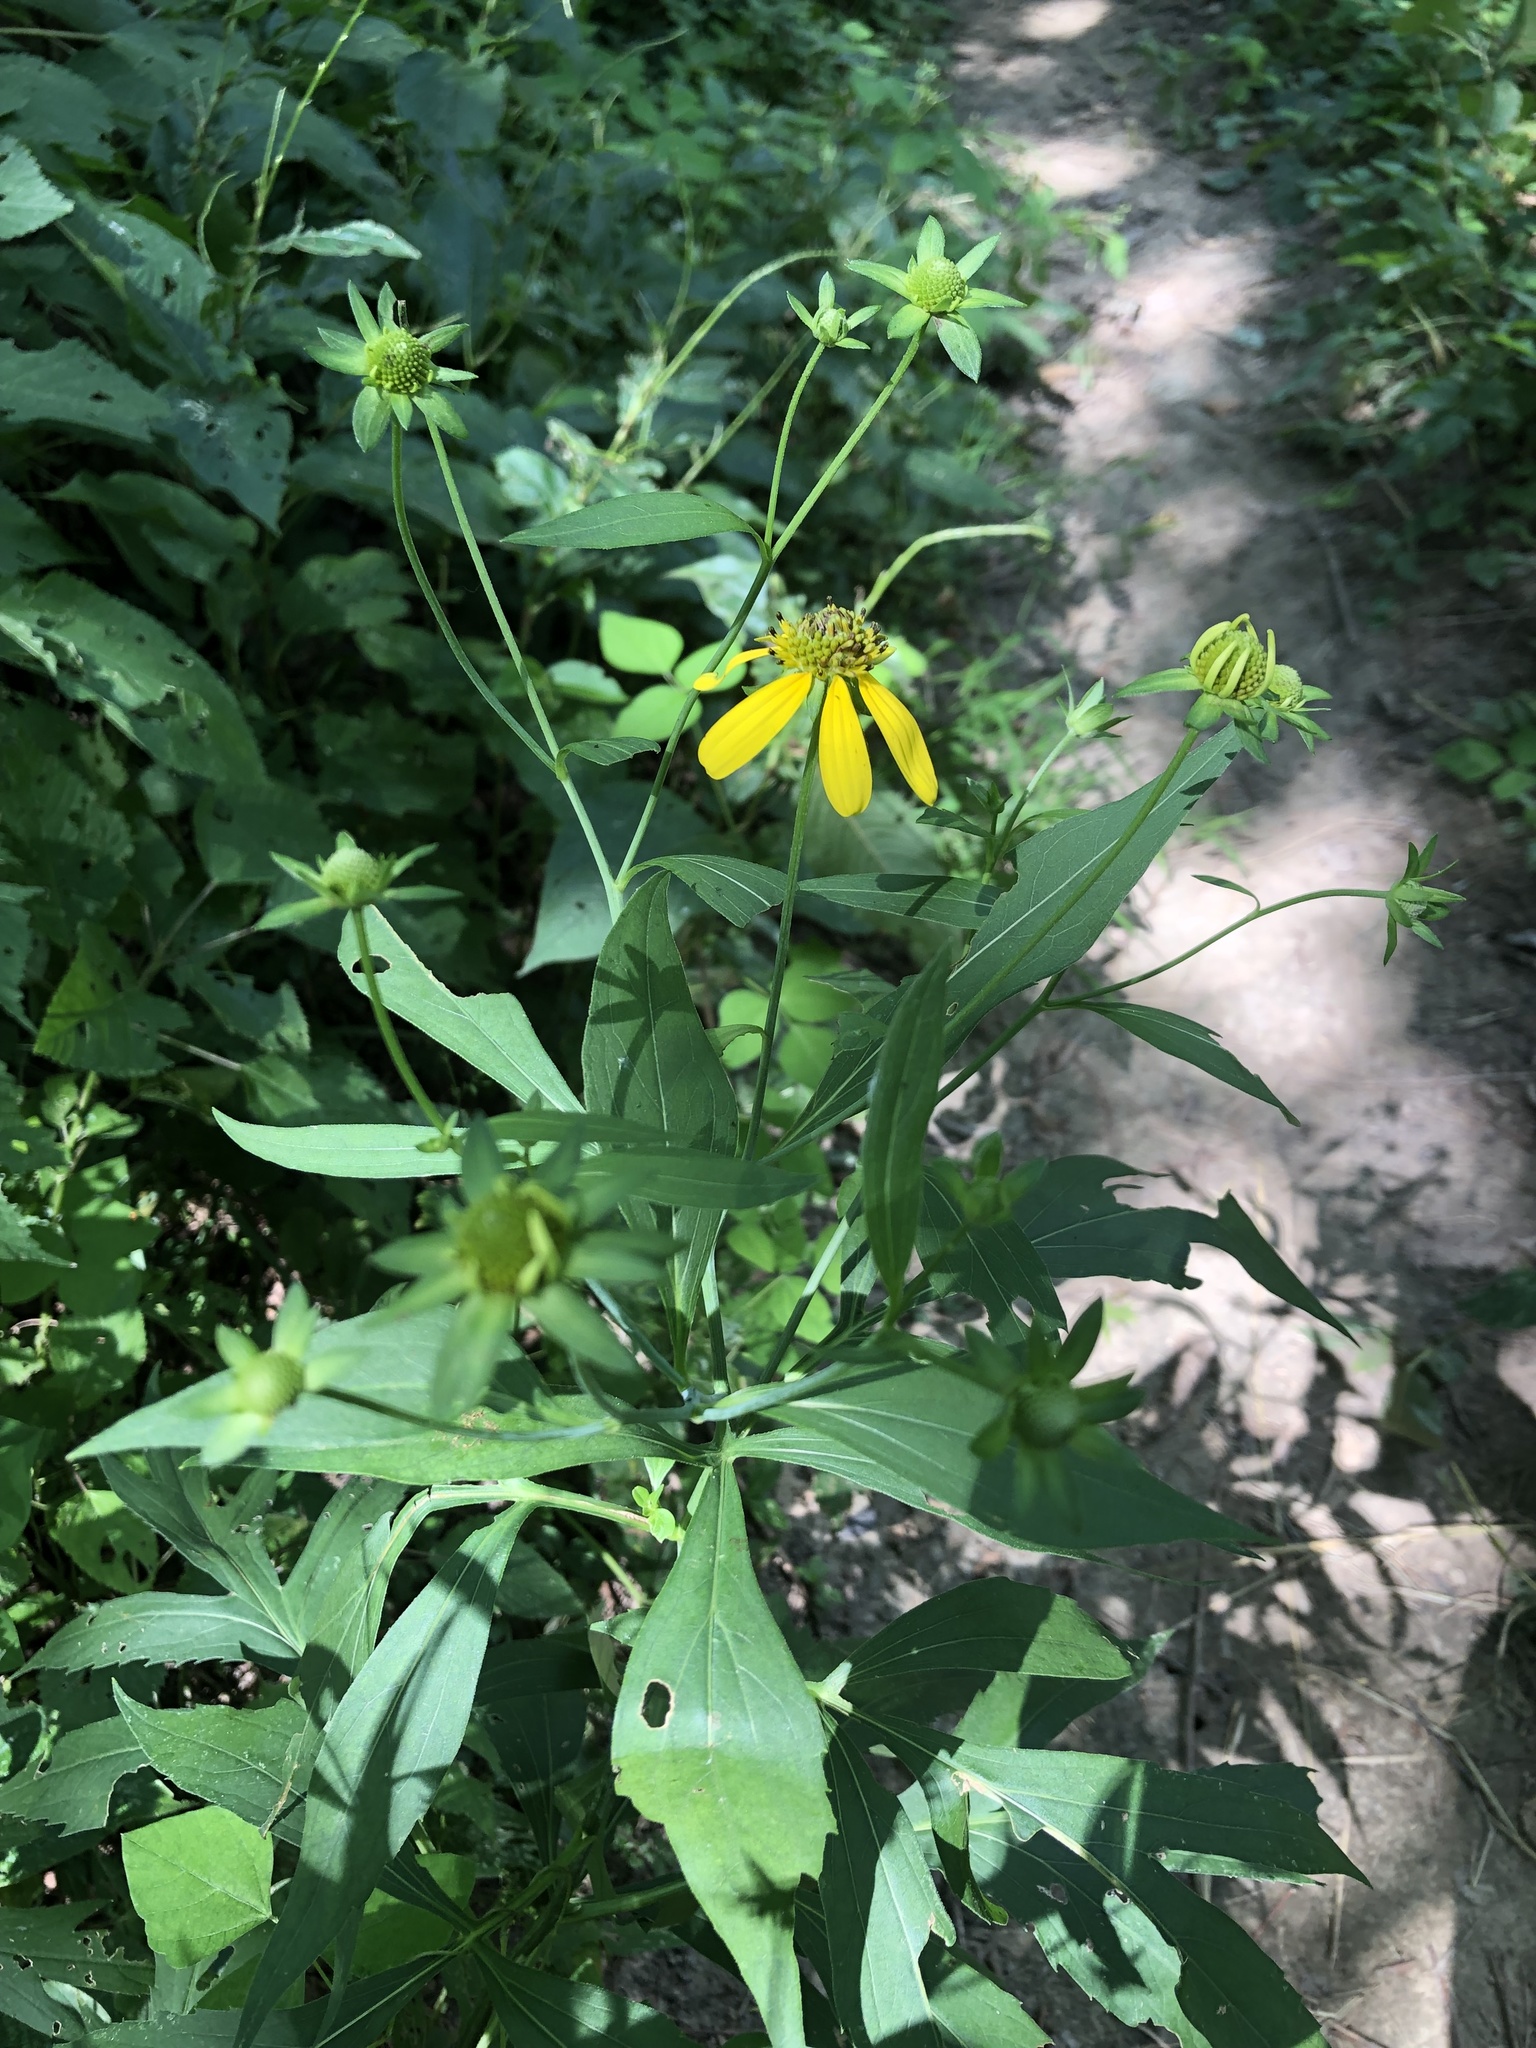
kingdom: Plantae
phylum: Tracheophyta
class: Magnoliopsida
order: Asterales
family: Asteraceae
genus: Rudbeckia
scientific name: Rudbeckia laciniata
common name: Coneflower
